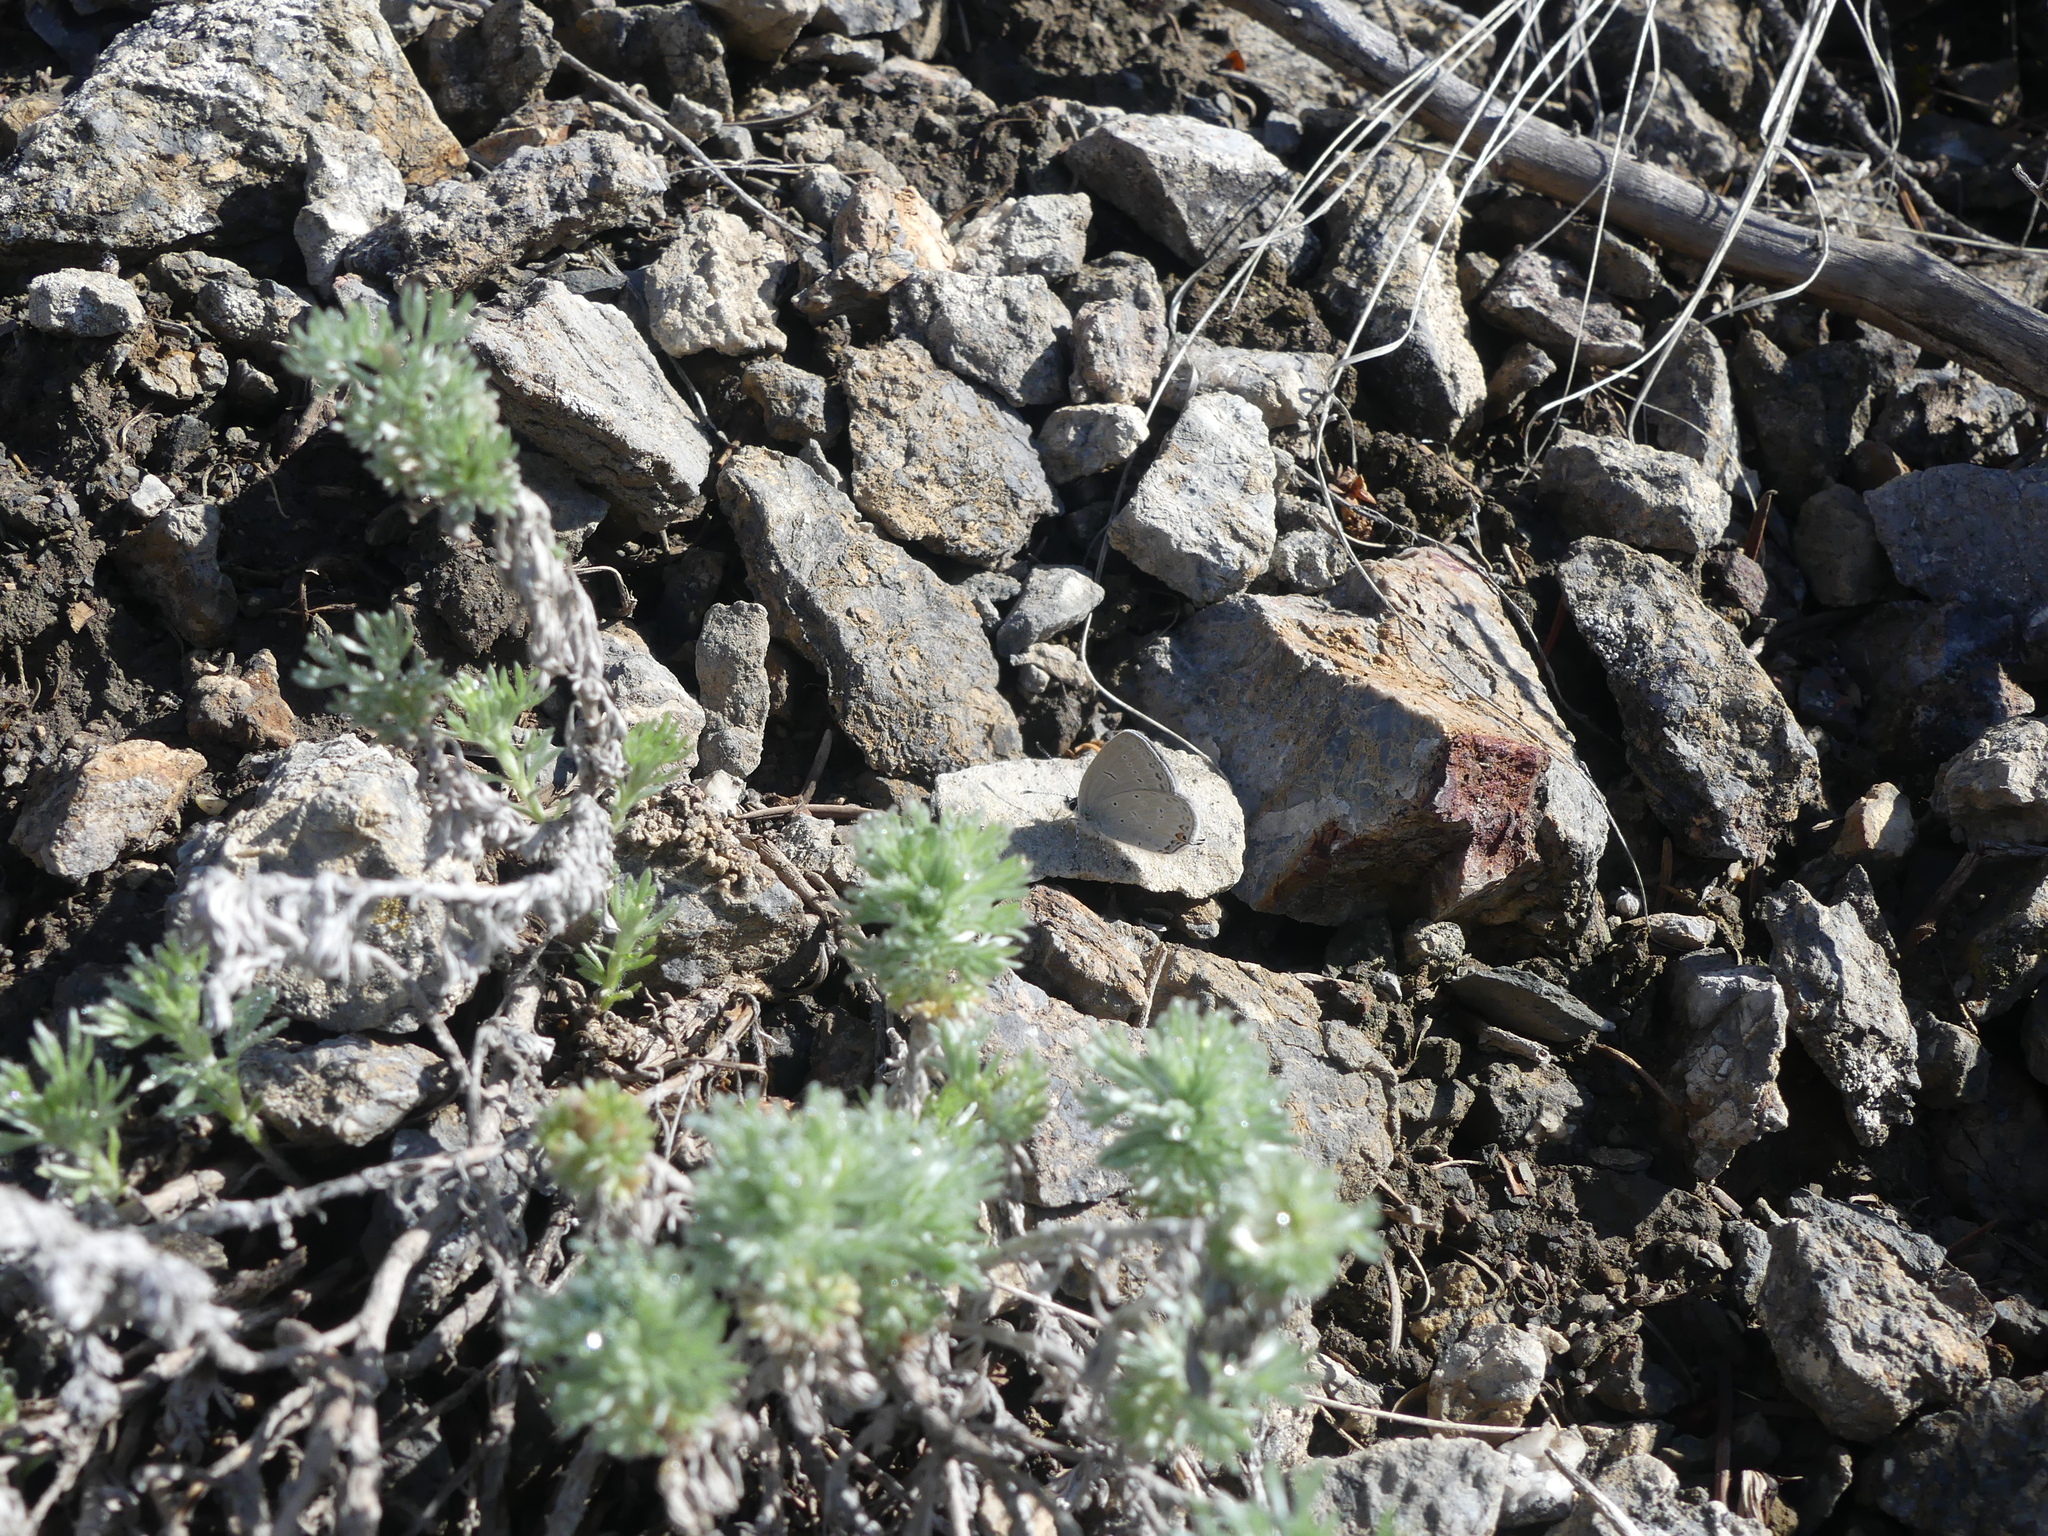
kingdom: Animalia
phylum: Arthropoda
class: Insecta
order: Lepidoptera
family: Lycaenidae
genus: Elkalyce
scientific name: Elkalyce amyntula
